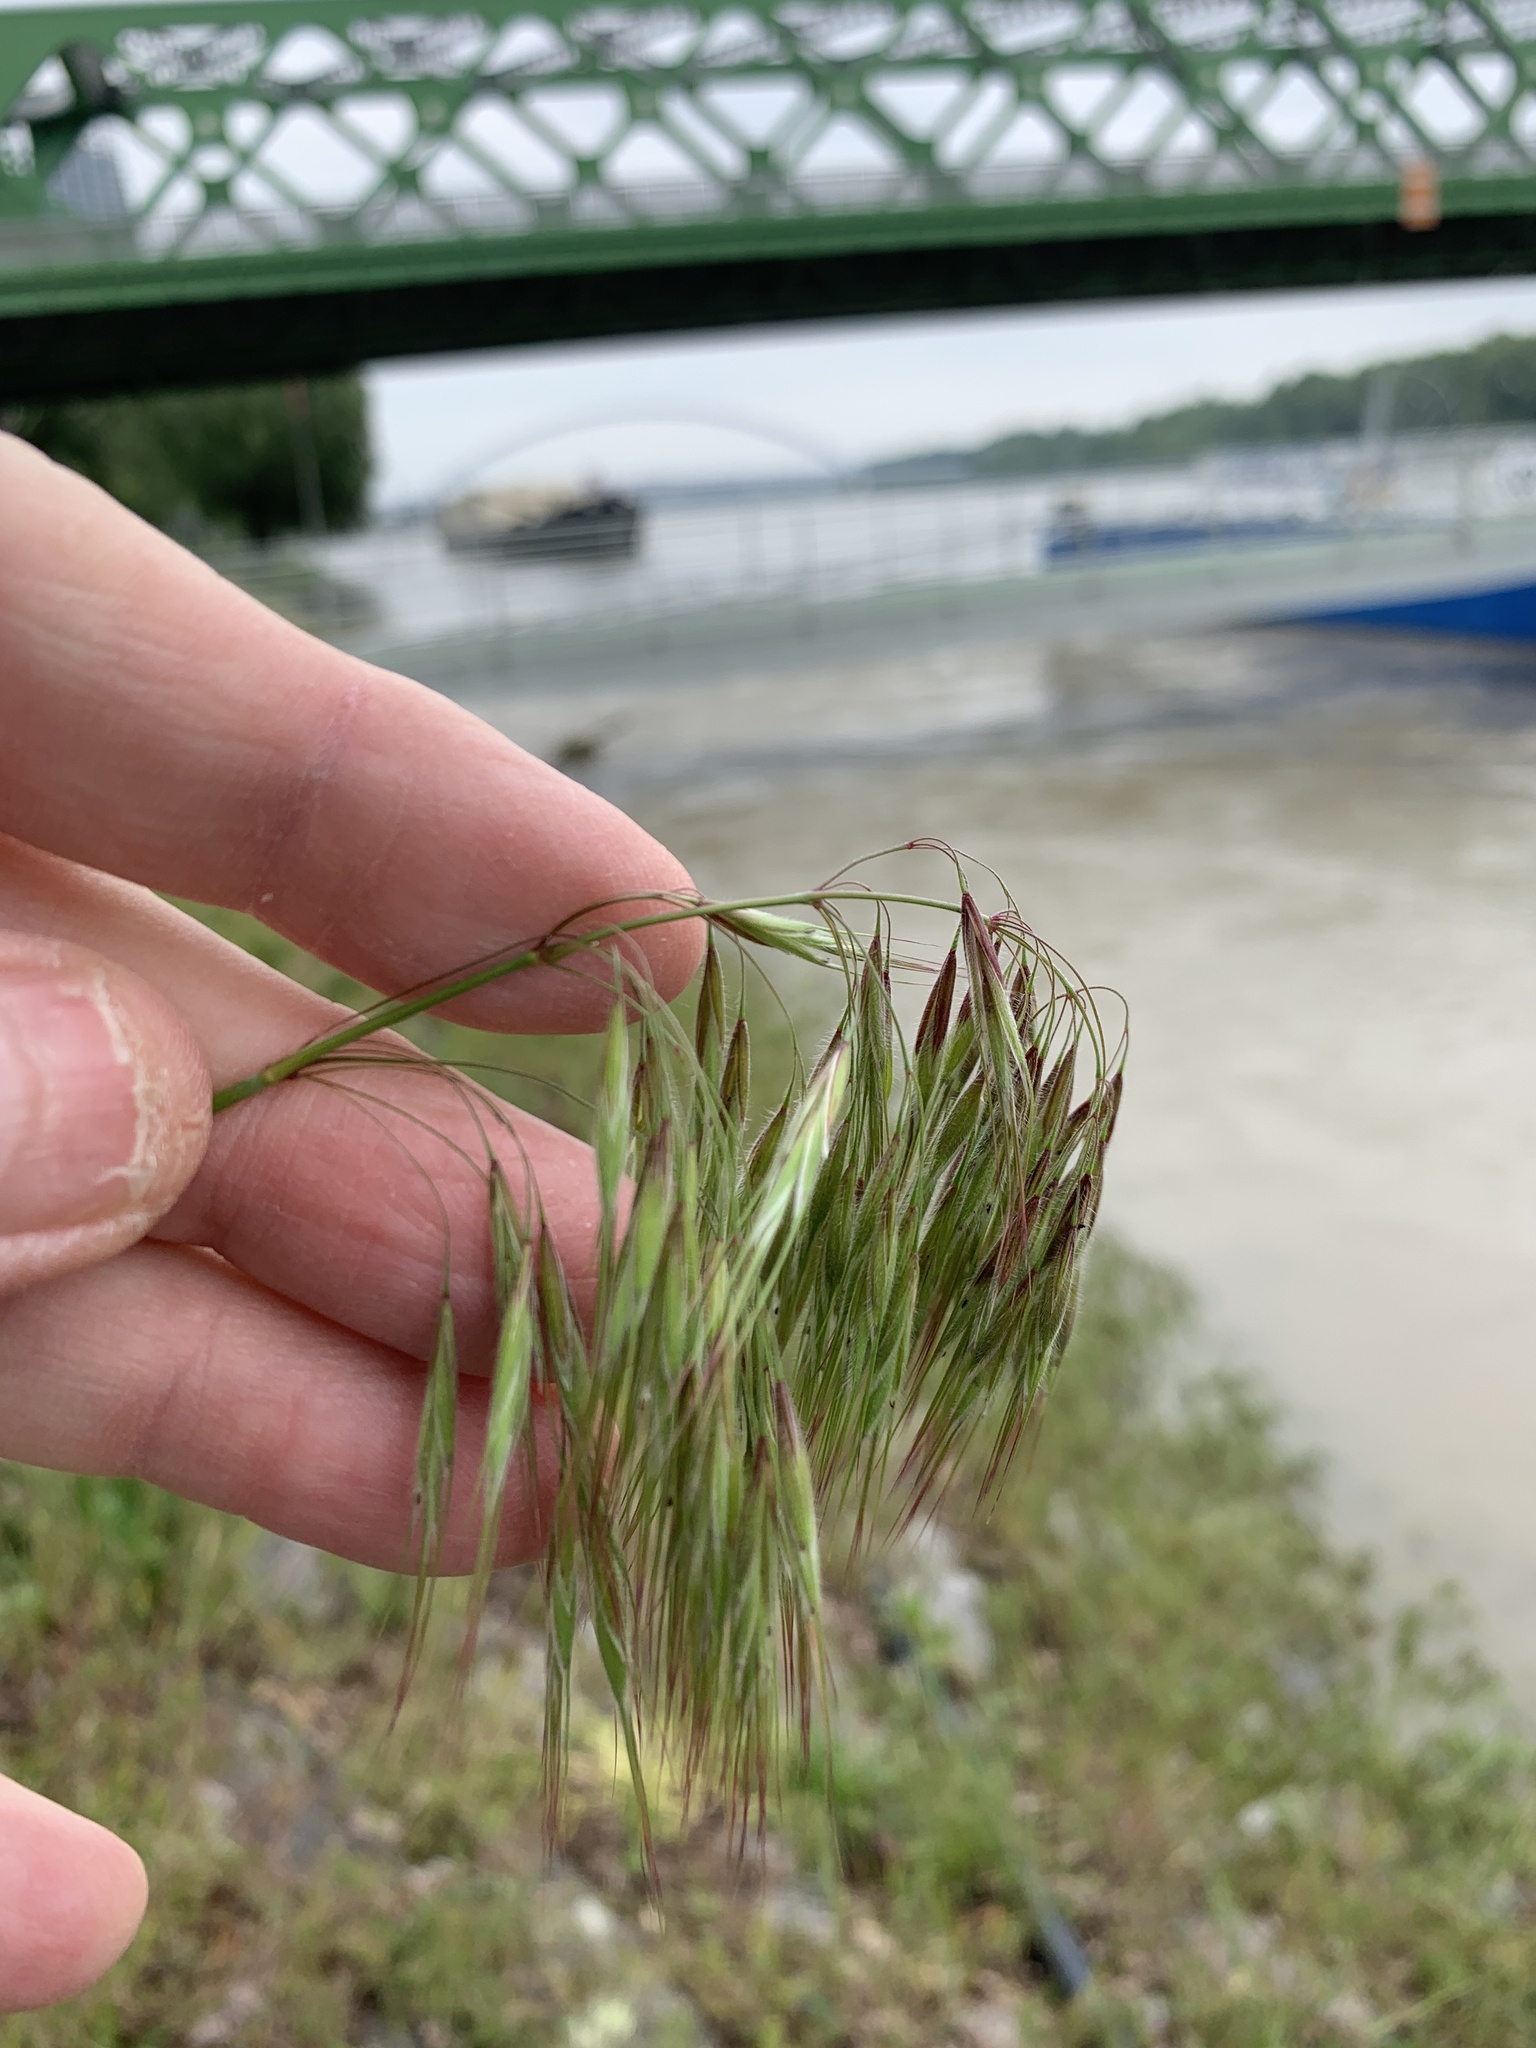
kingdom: Plantae
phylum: Tracheophyta
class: Liliopsida
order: Poales
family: Poaceae
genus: Bromus
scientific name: Bromus tectorum
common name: Cheatgrass
